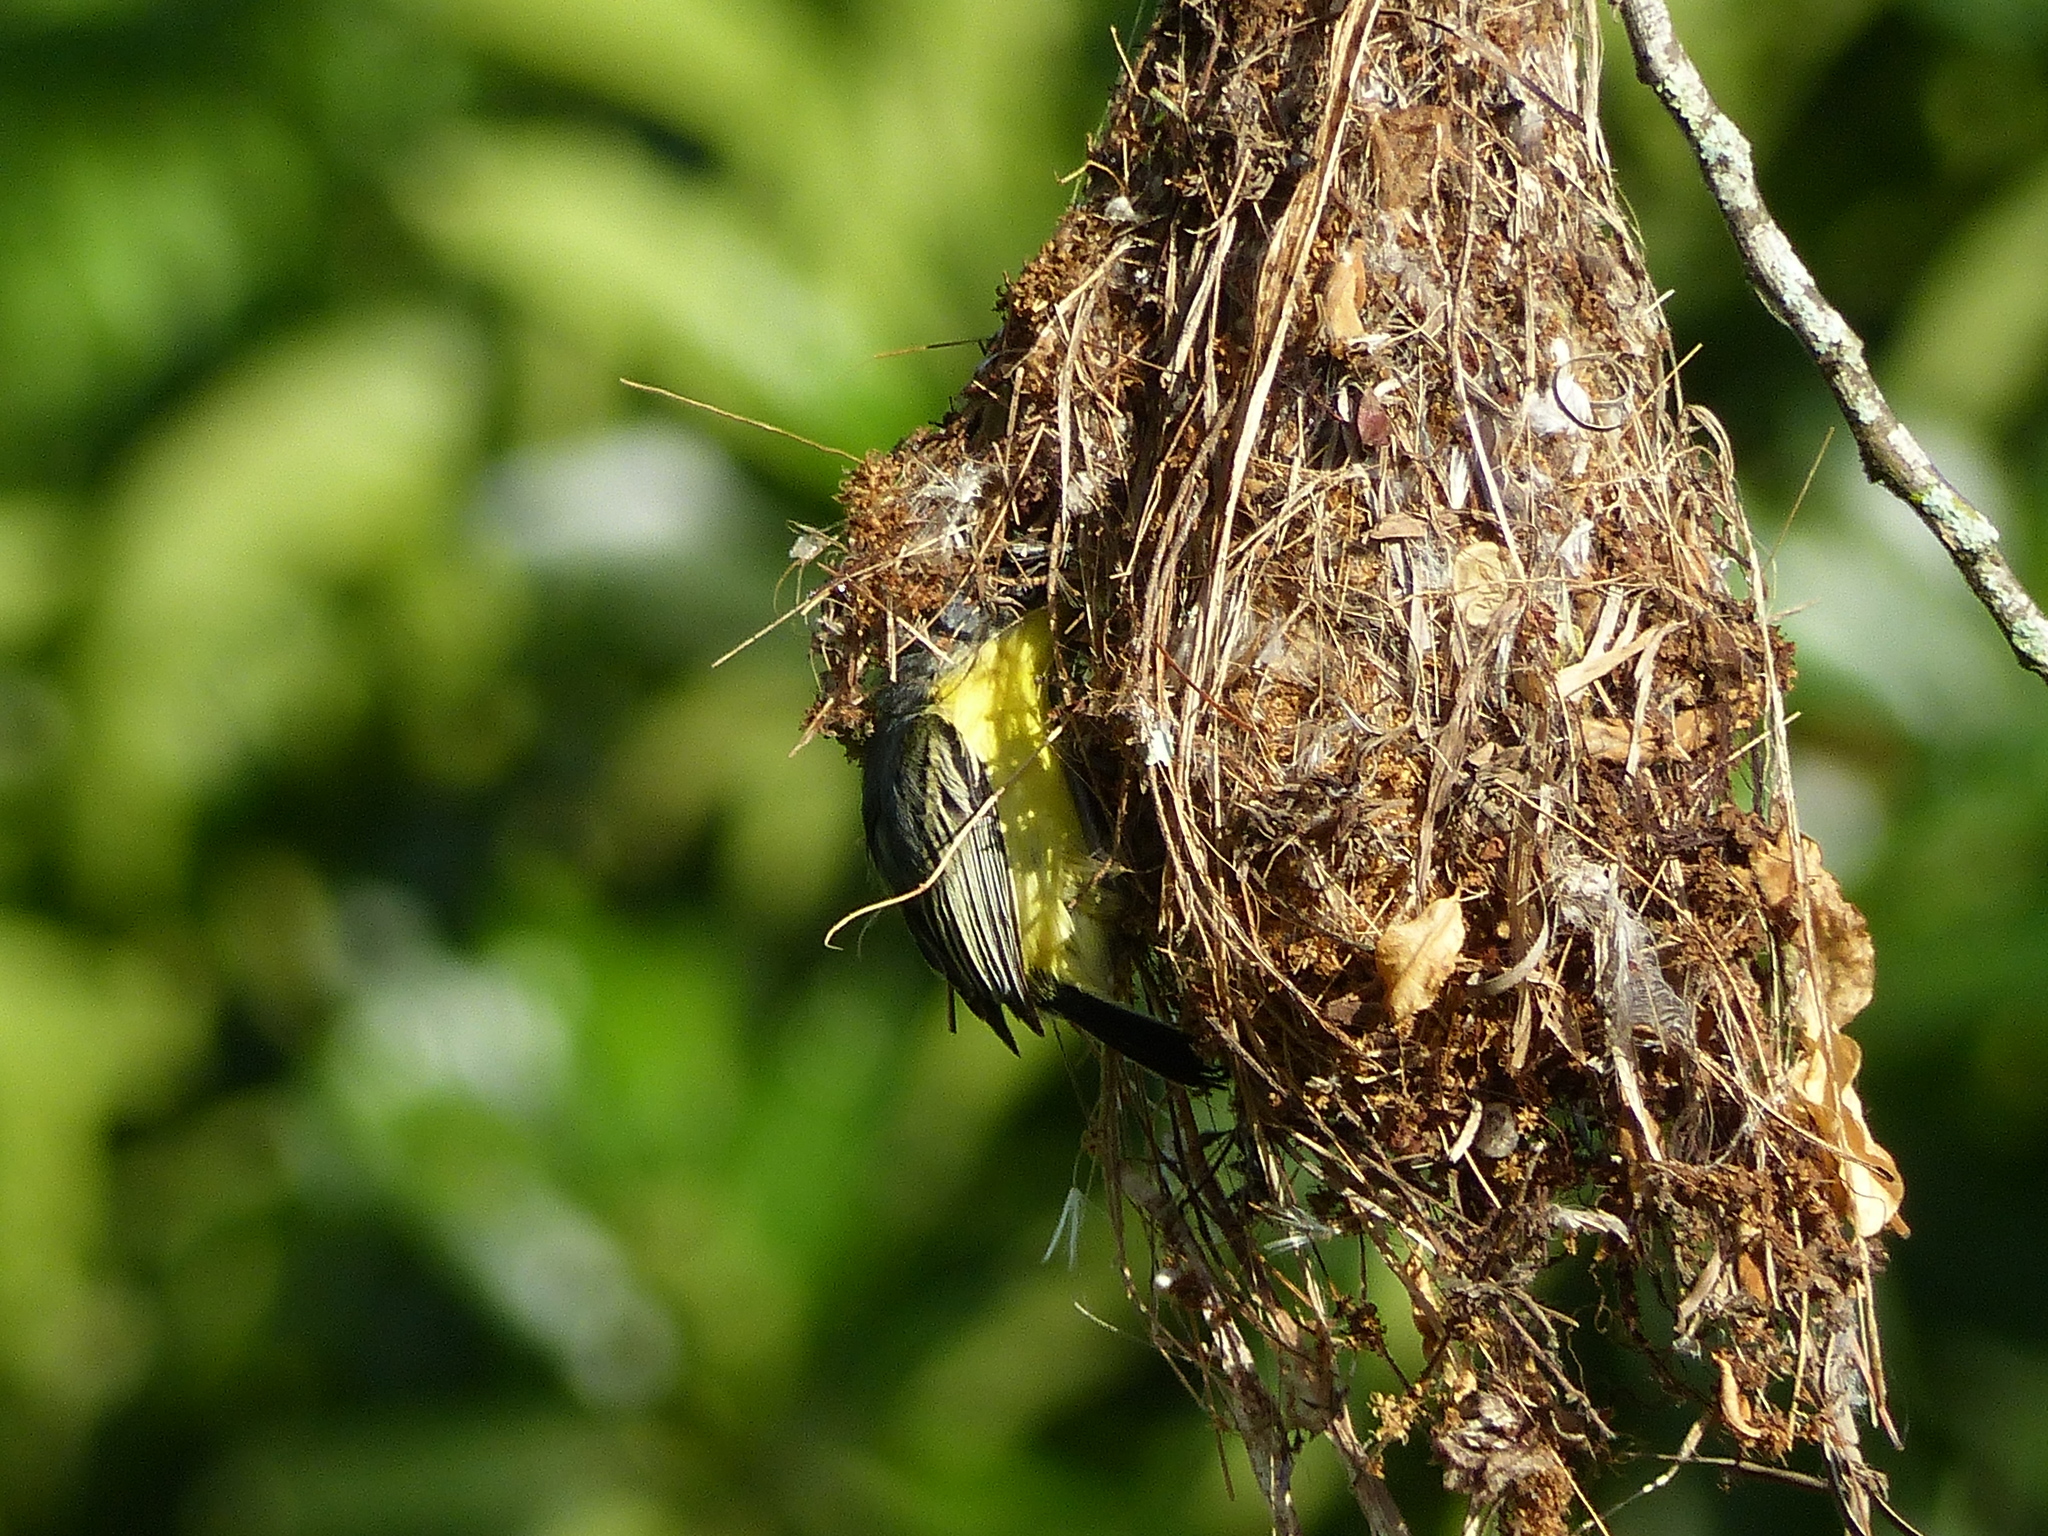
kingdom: Animalia
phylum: Chordata
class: Aves
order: Passeriformes
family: Tyrannidae
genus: Todirostrum
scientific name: Todirostrum cinereum
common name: Common tody-flycatcher
